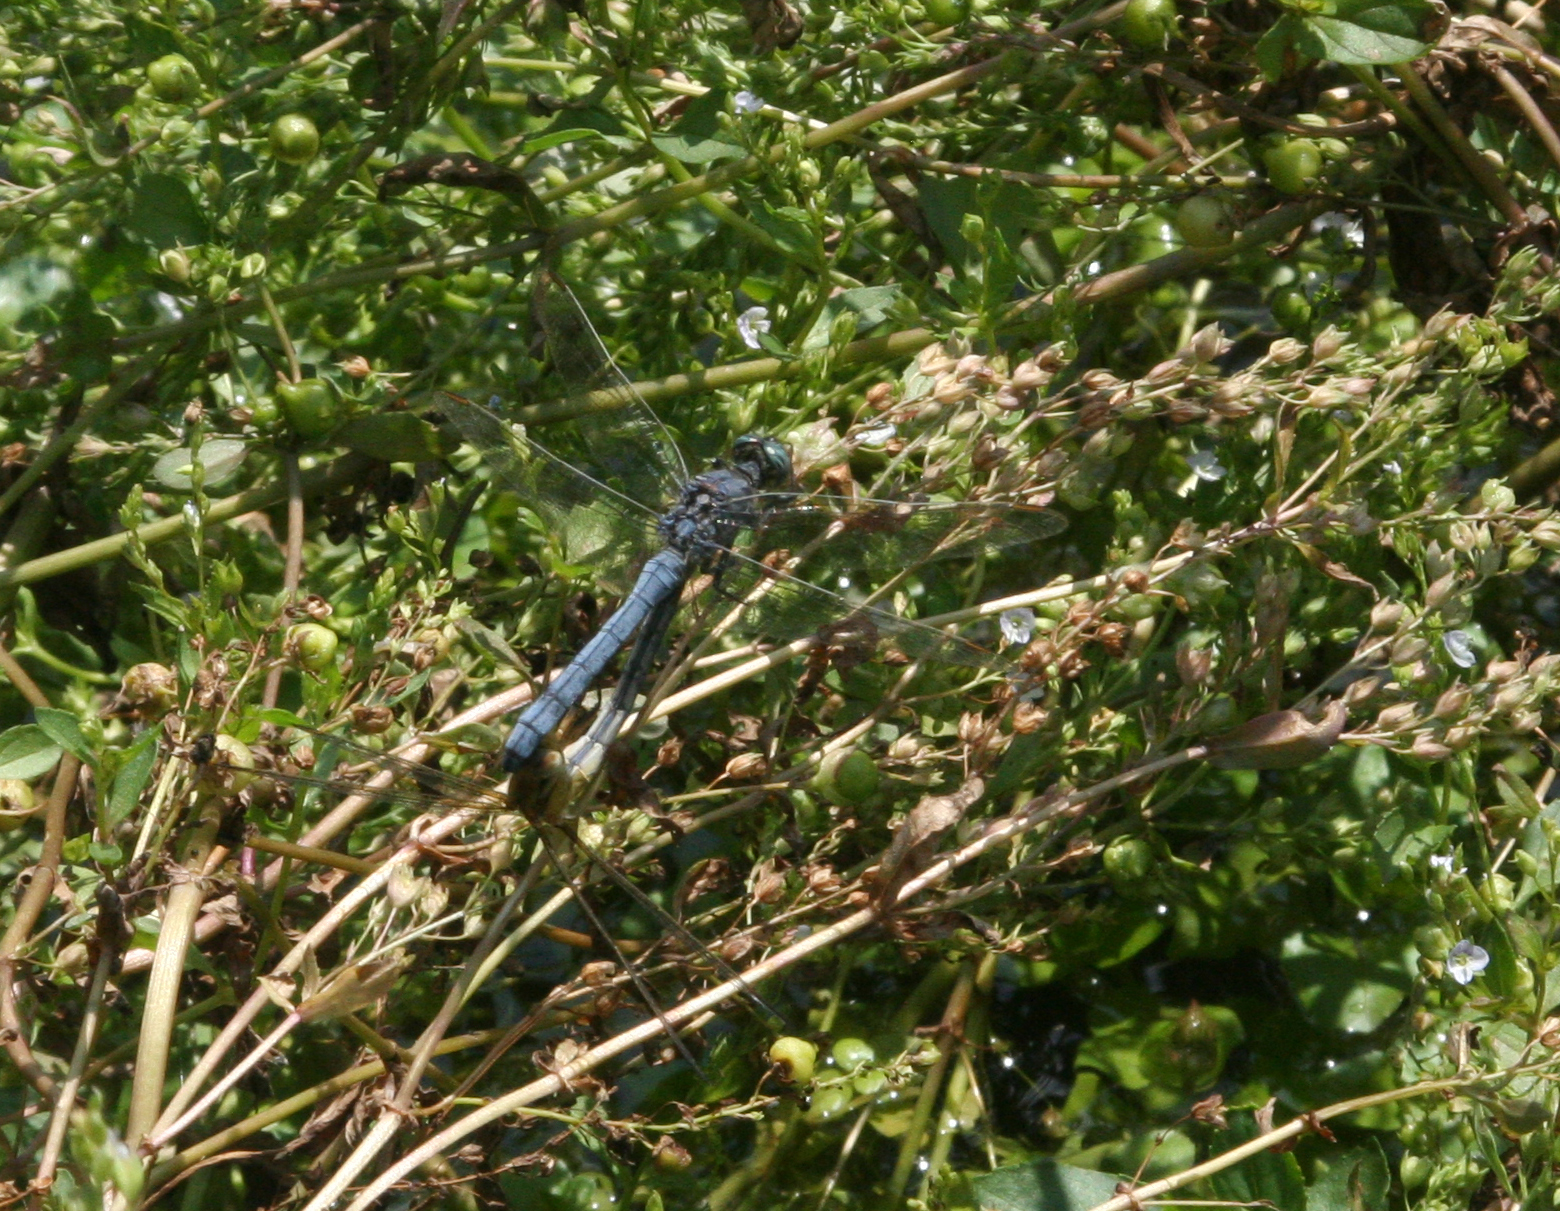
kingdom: Animalia
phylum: Arthropoda
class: Insecta
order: Odonata
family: Libellulidae
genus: Orthetrum
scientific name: Orthetrum coerulescens
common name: Keeled skimmer
